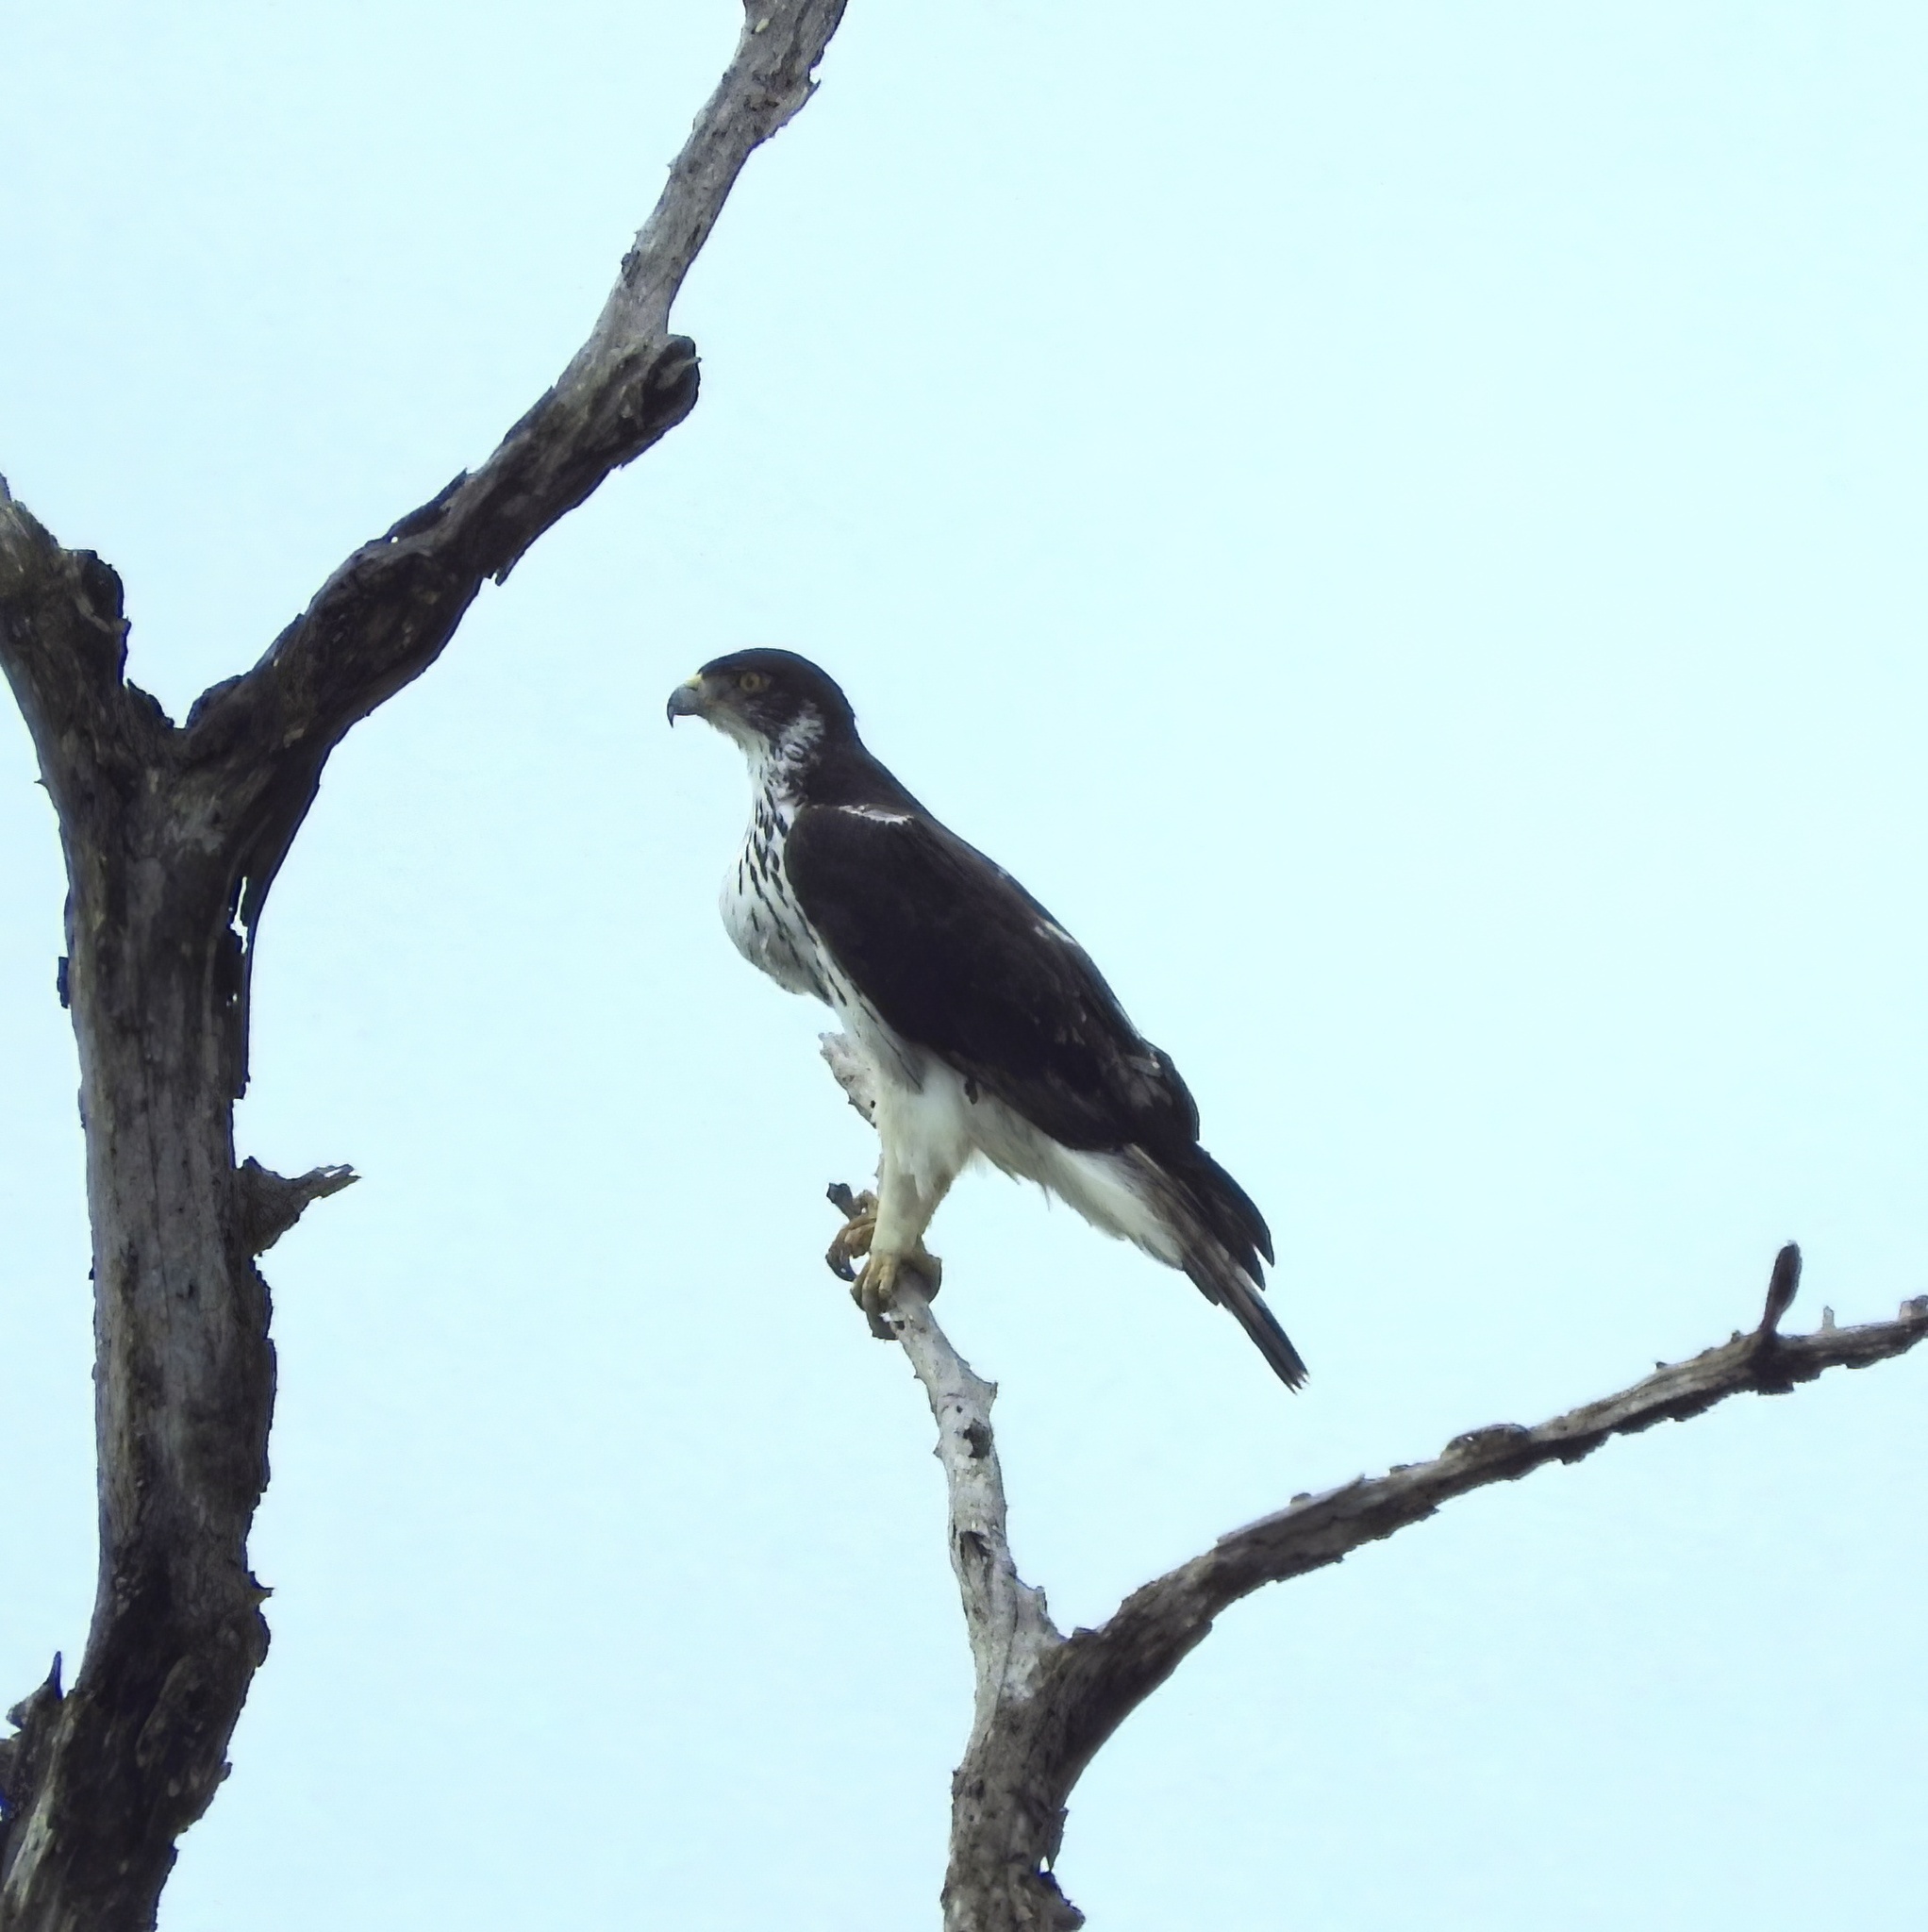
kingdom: Animalia
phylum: Chordata
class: Aves
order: Accipitriformes
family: Accipitridae
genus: Aquila
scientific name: Aquila spilogaster
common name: African hawk-eagle
